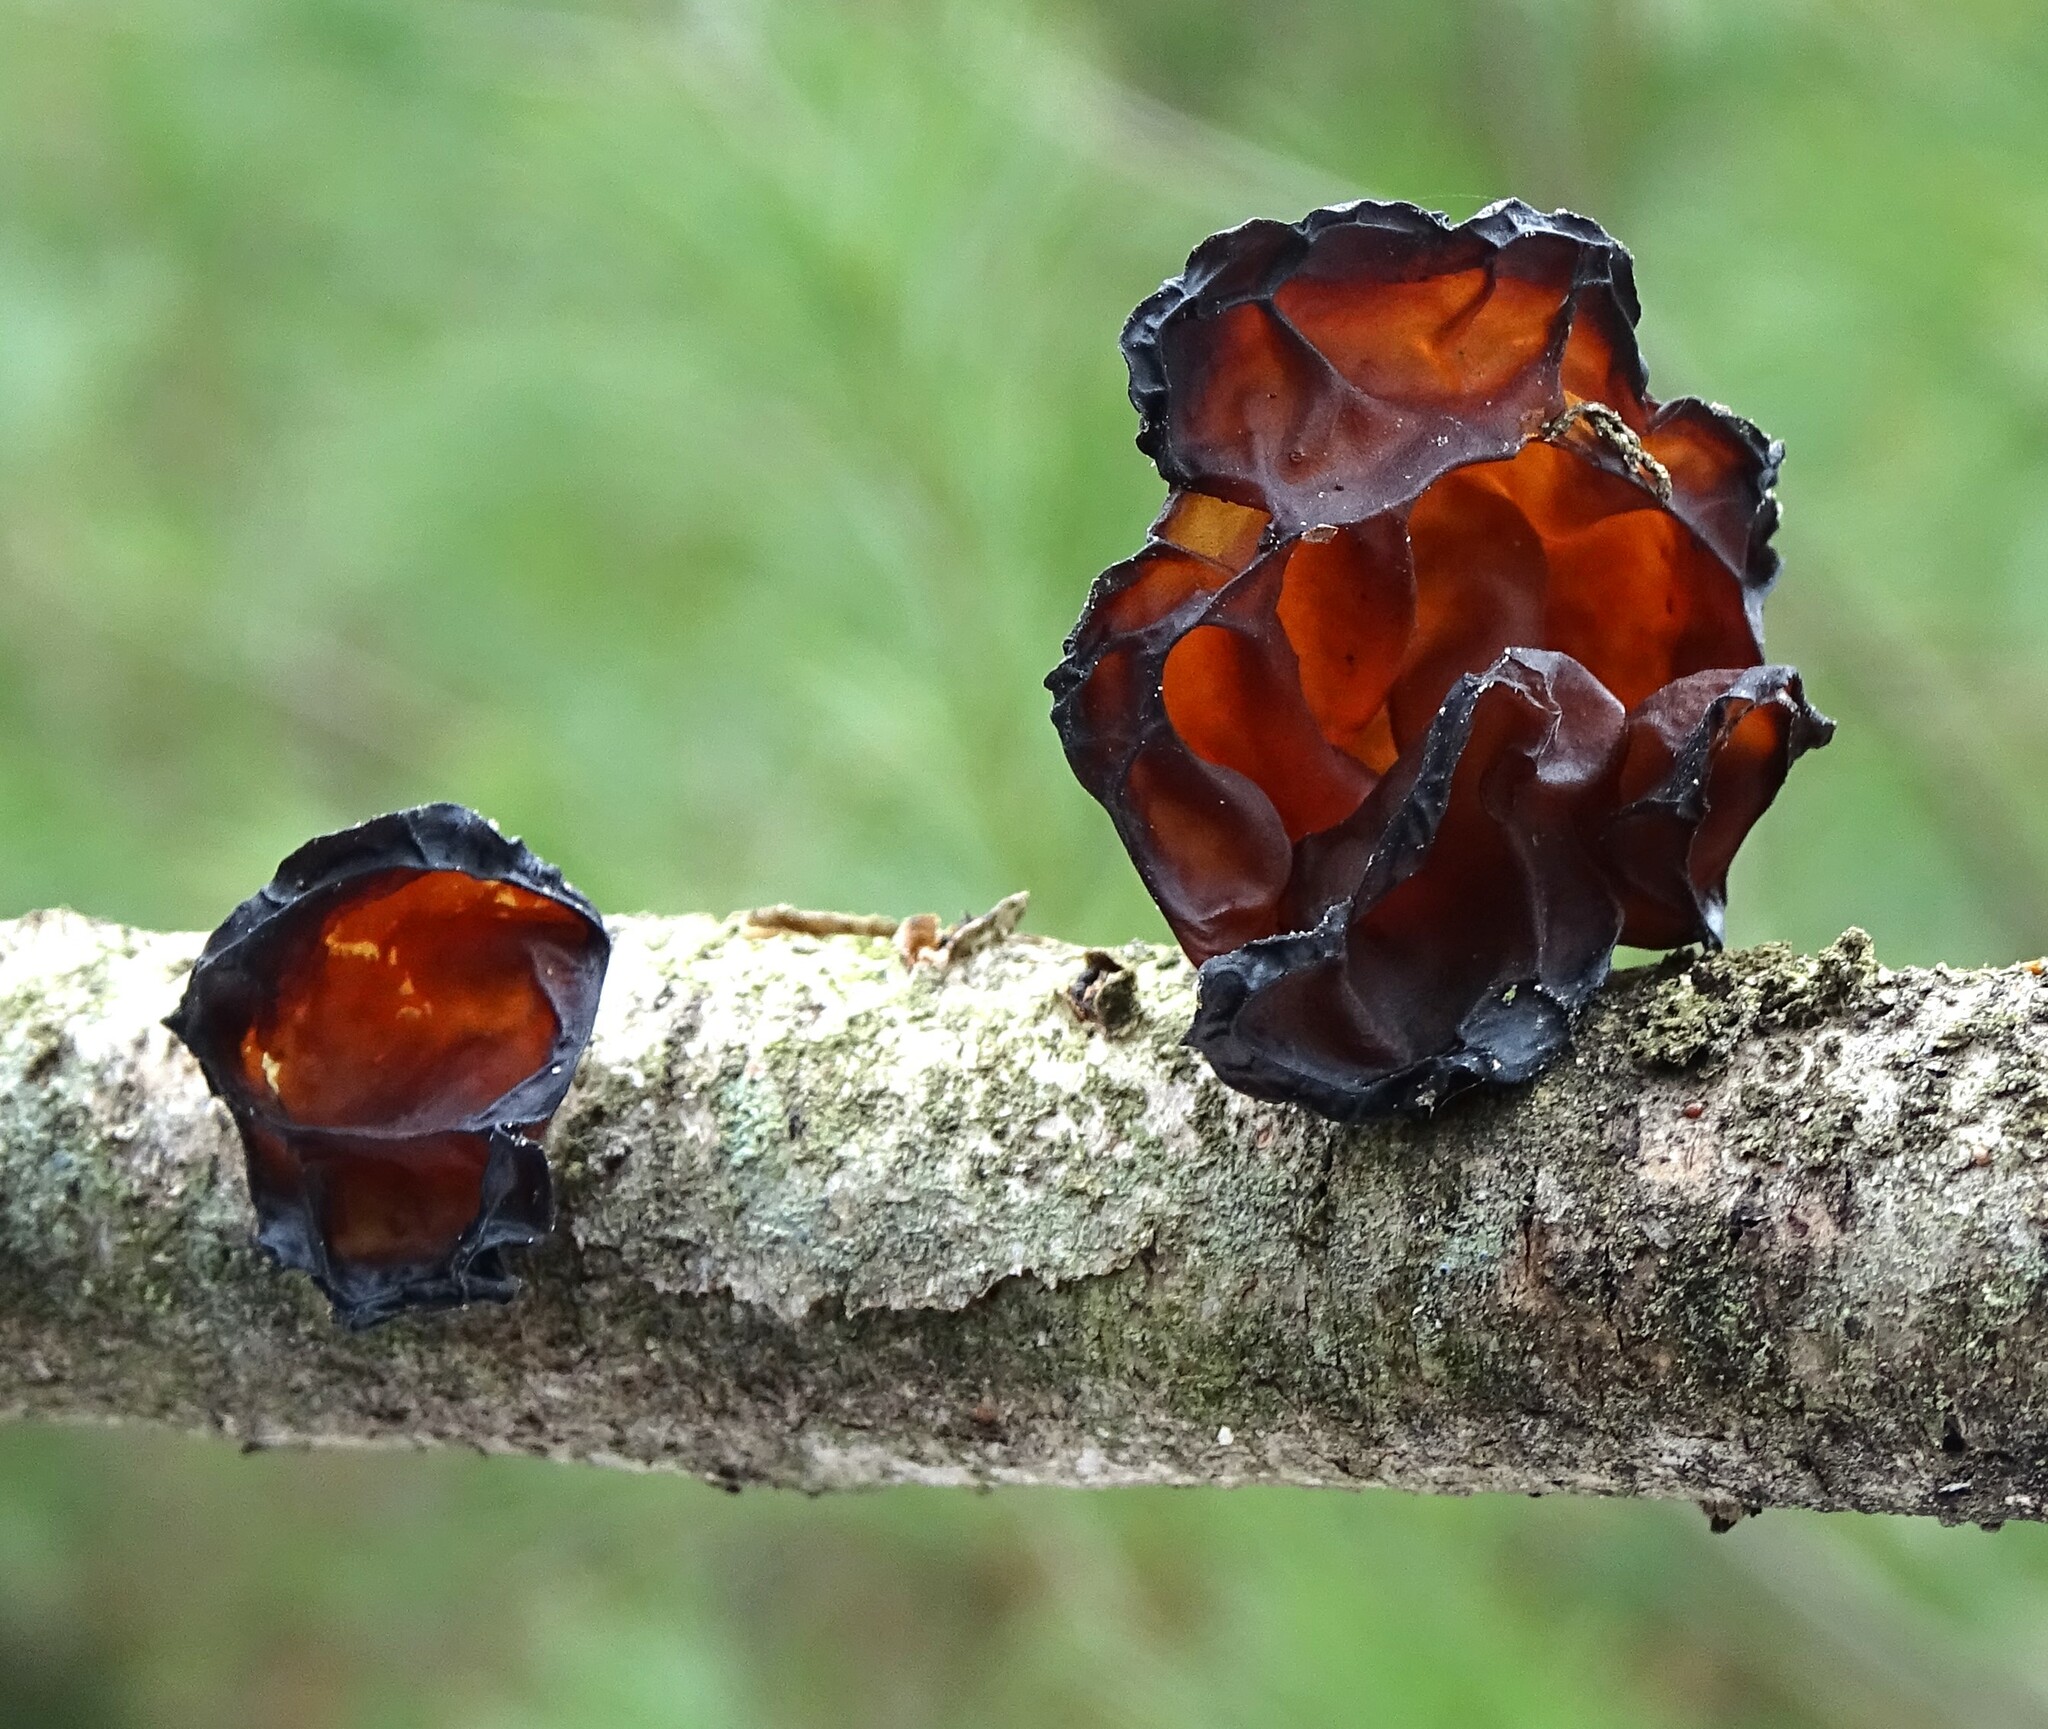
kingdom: Fungi
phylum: Basidiomycota
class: Agaricomycetes
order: Auriculariales
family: Auriculariaceae
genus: Exidia
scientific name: Exidia
